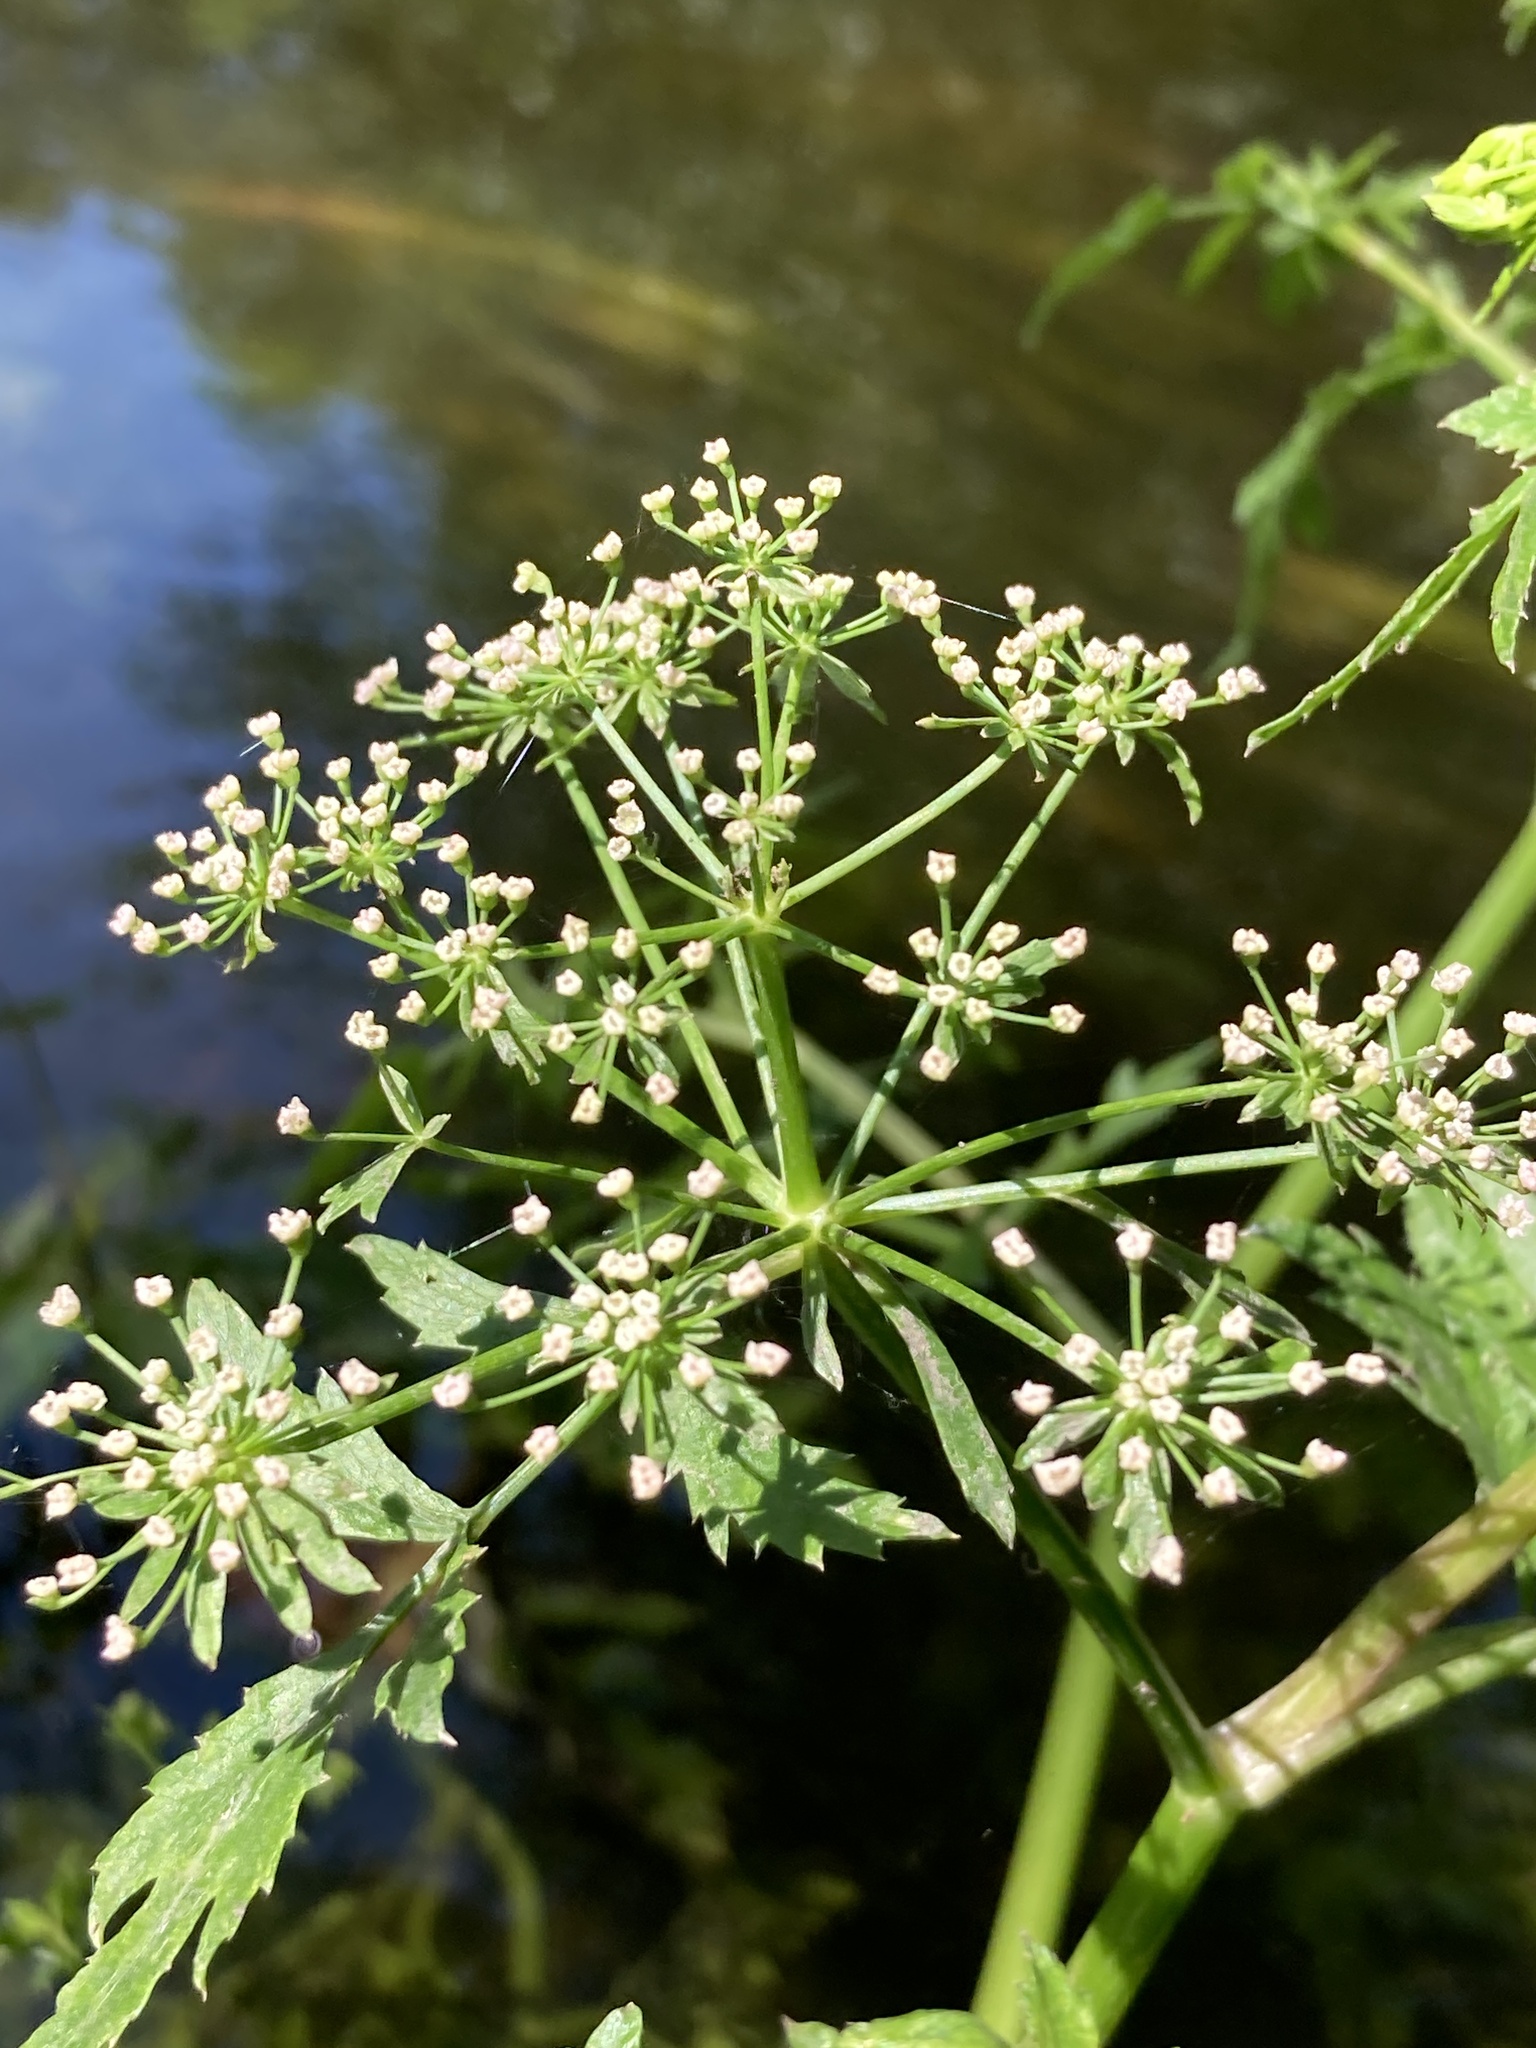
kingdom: Plantae
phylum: Tracheophyta
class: Magnoliopsida
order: Apiales
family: Apiaceae
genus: Berula
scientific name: Berula erecta
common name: Lesser water-parsnip
